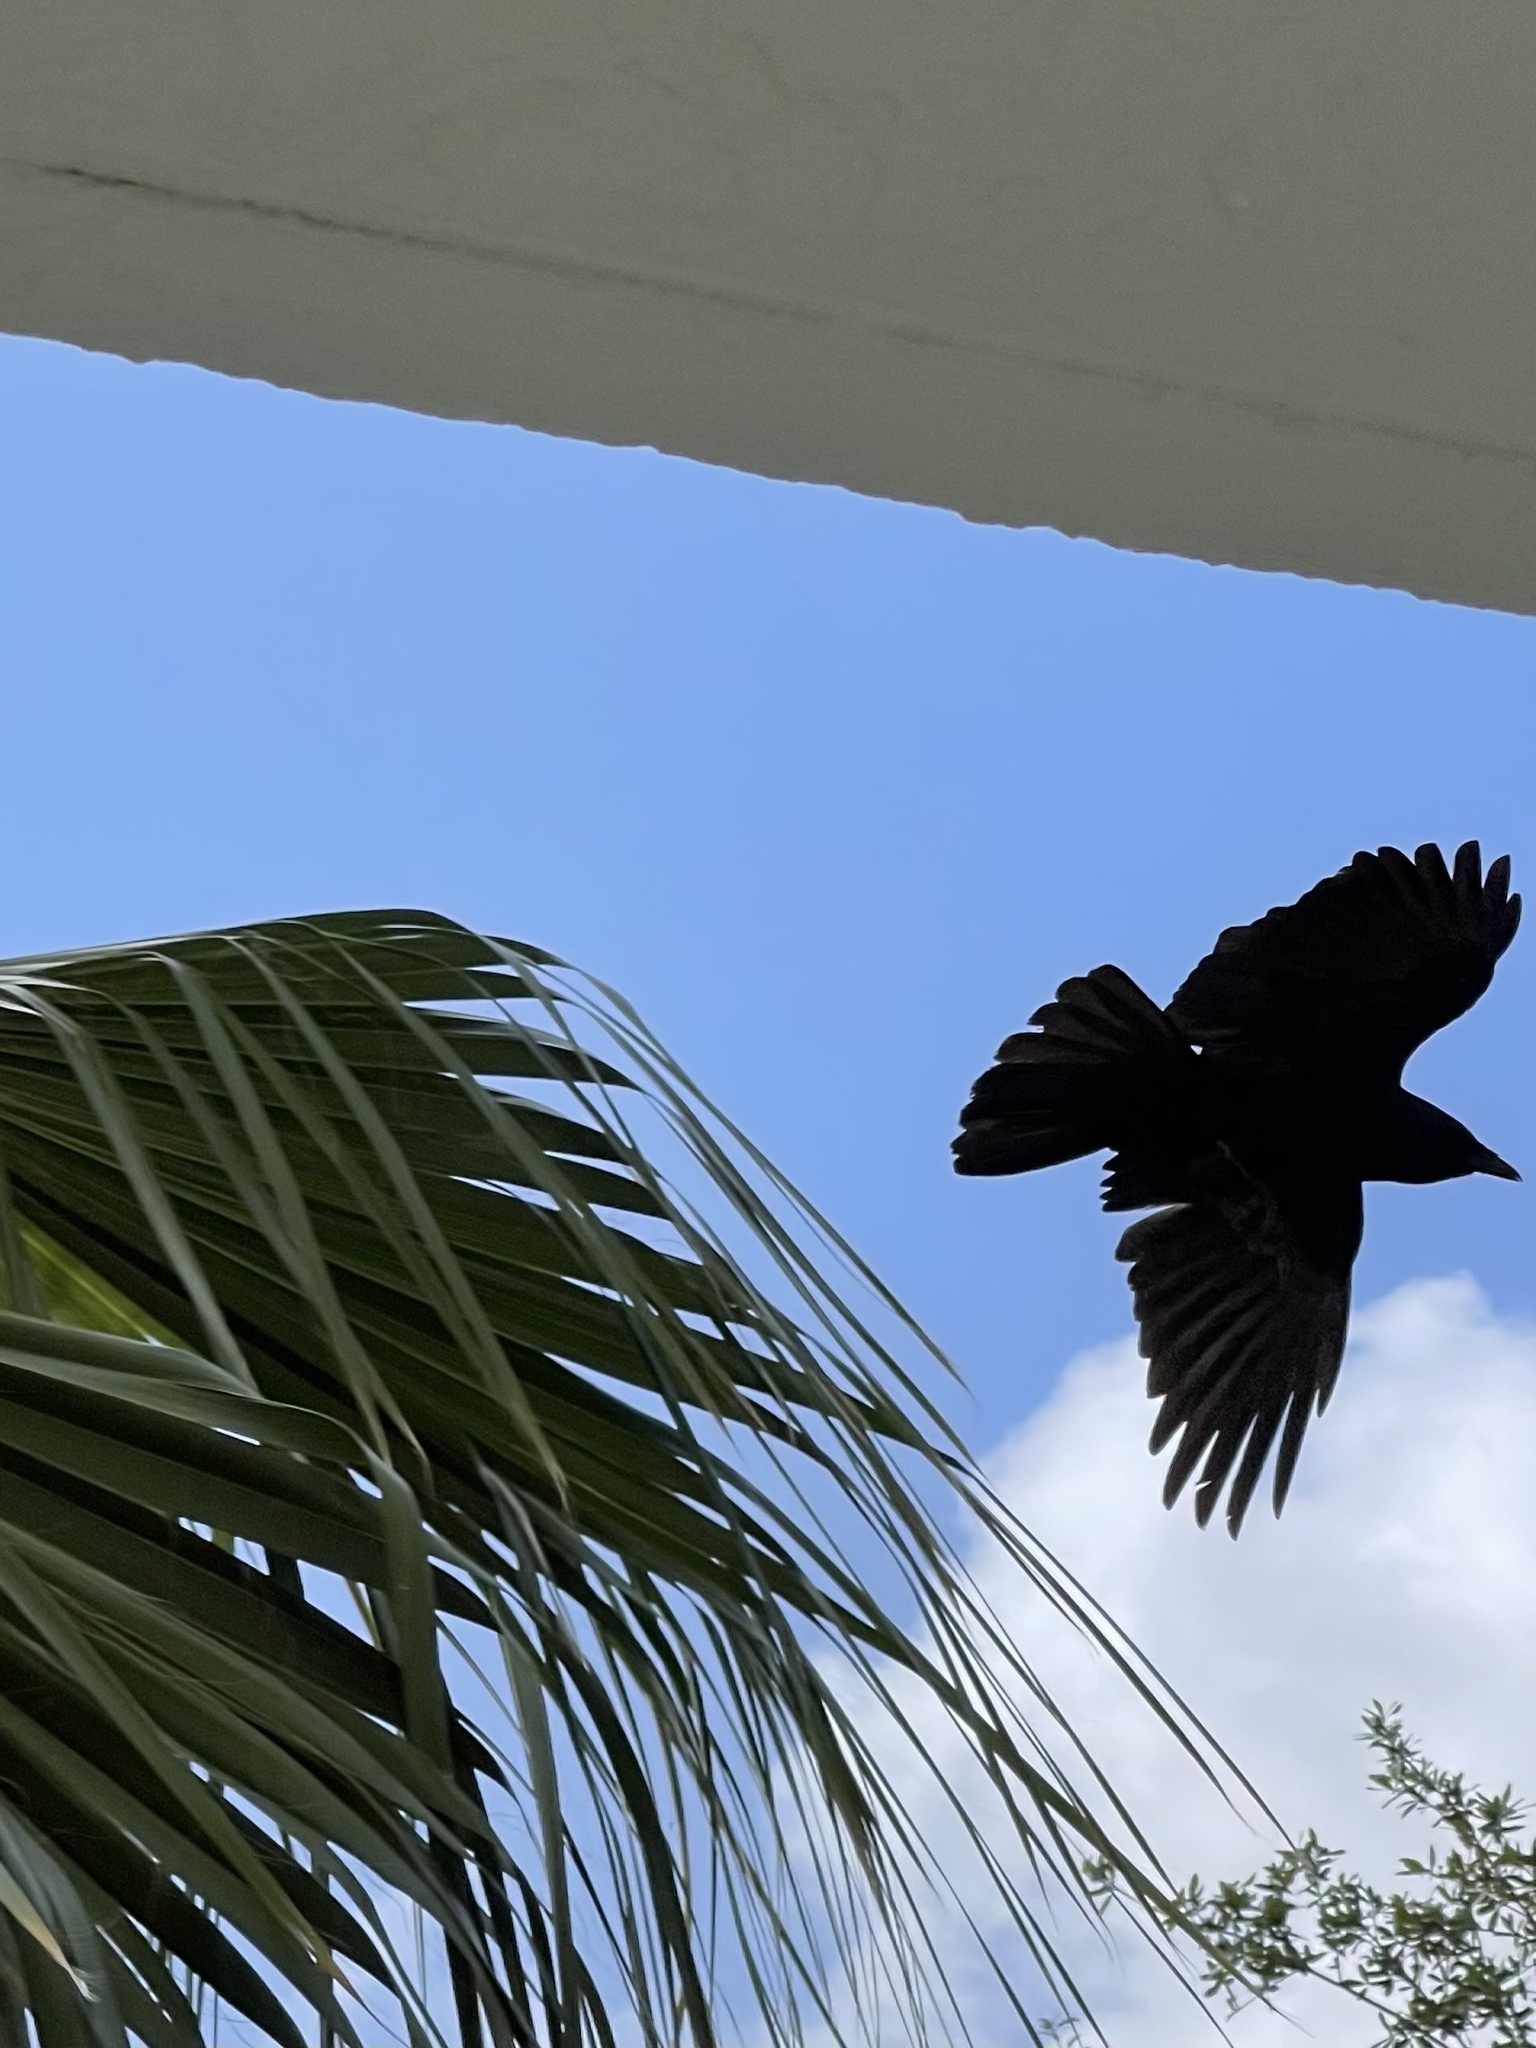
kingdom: Animalia
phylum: Chordata
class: Aves
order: Passeriformes
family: Corvidae
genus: Corvus
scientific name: Corvus ossifragus
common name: Fish crow
